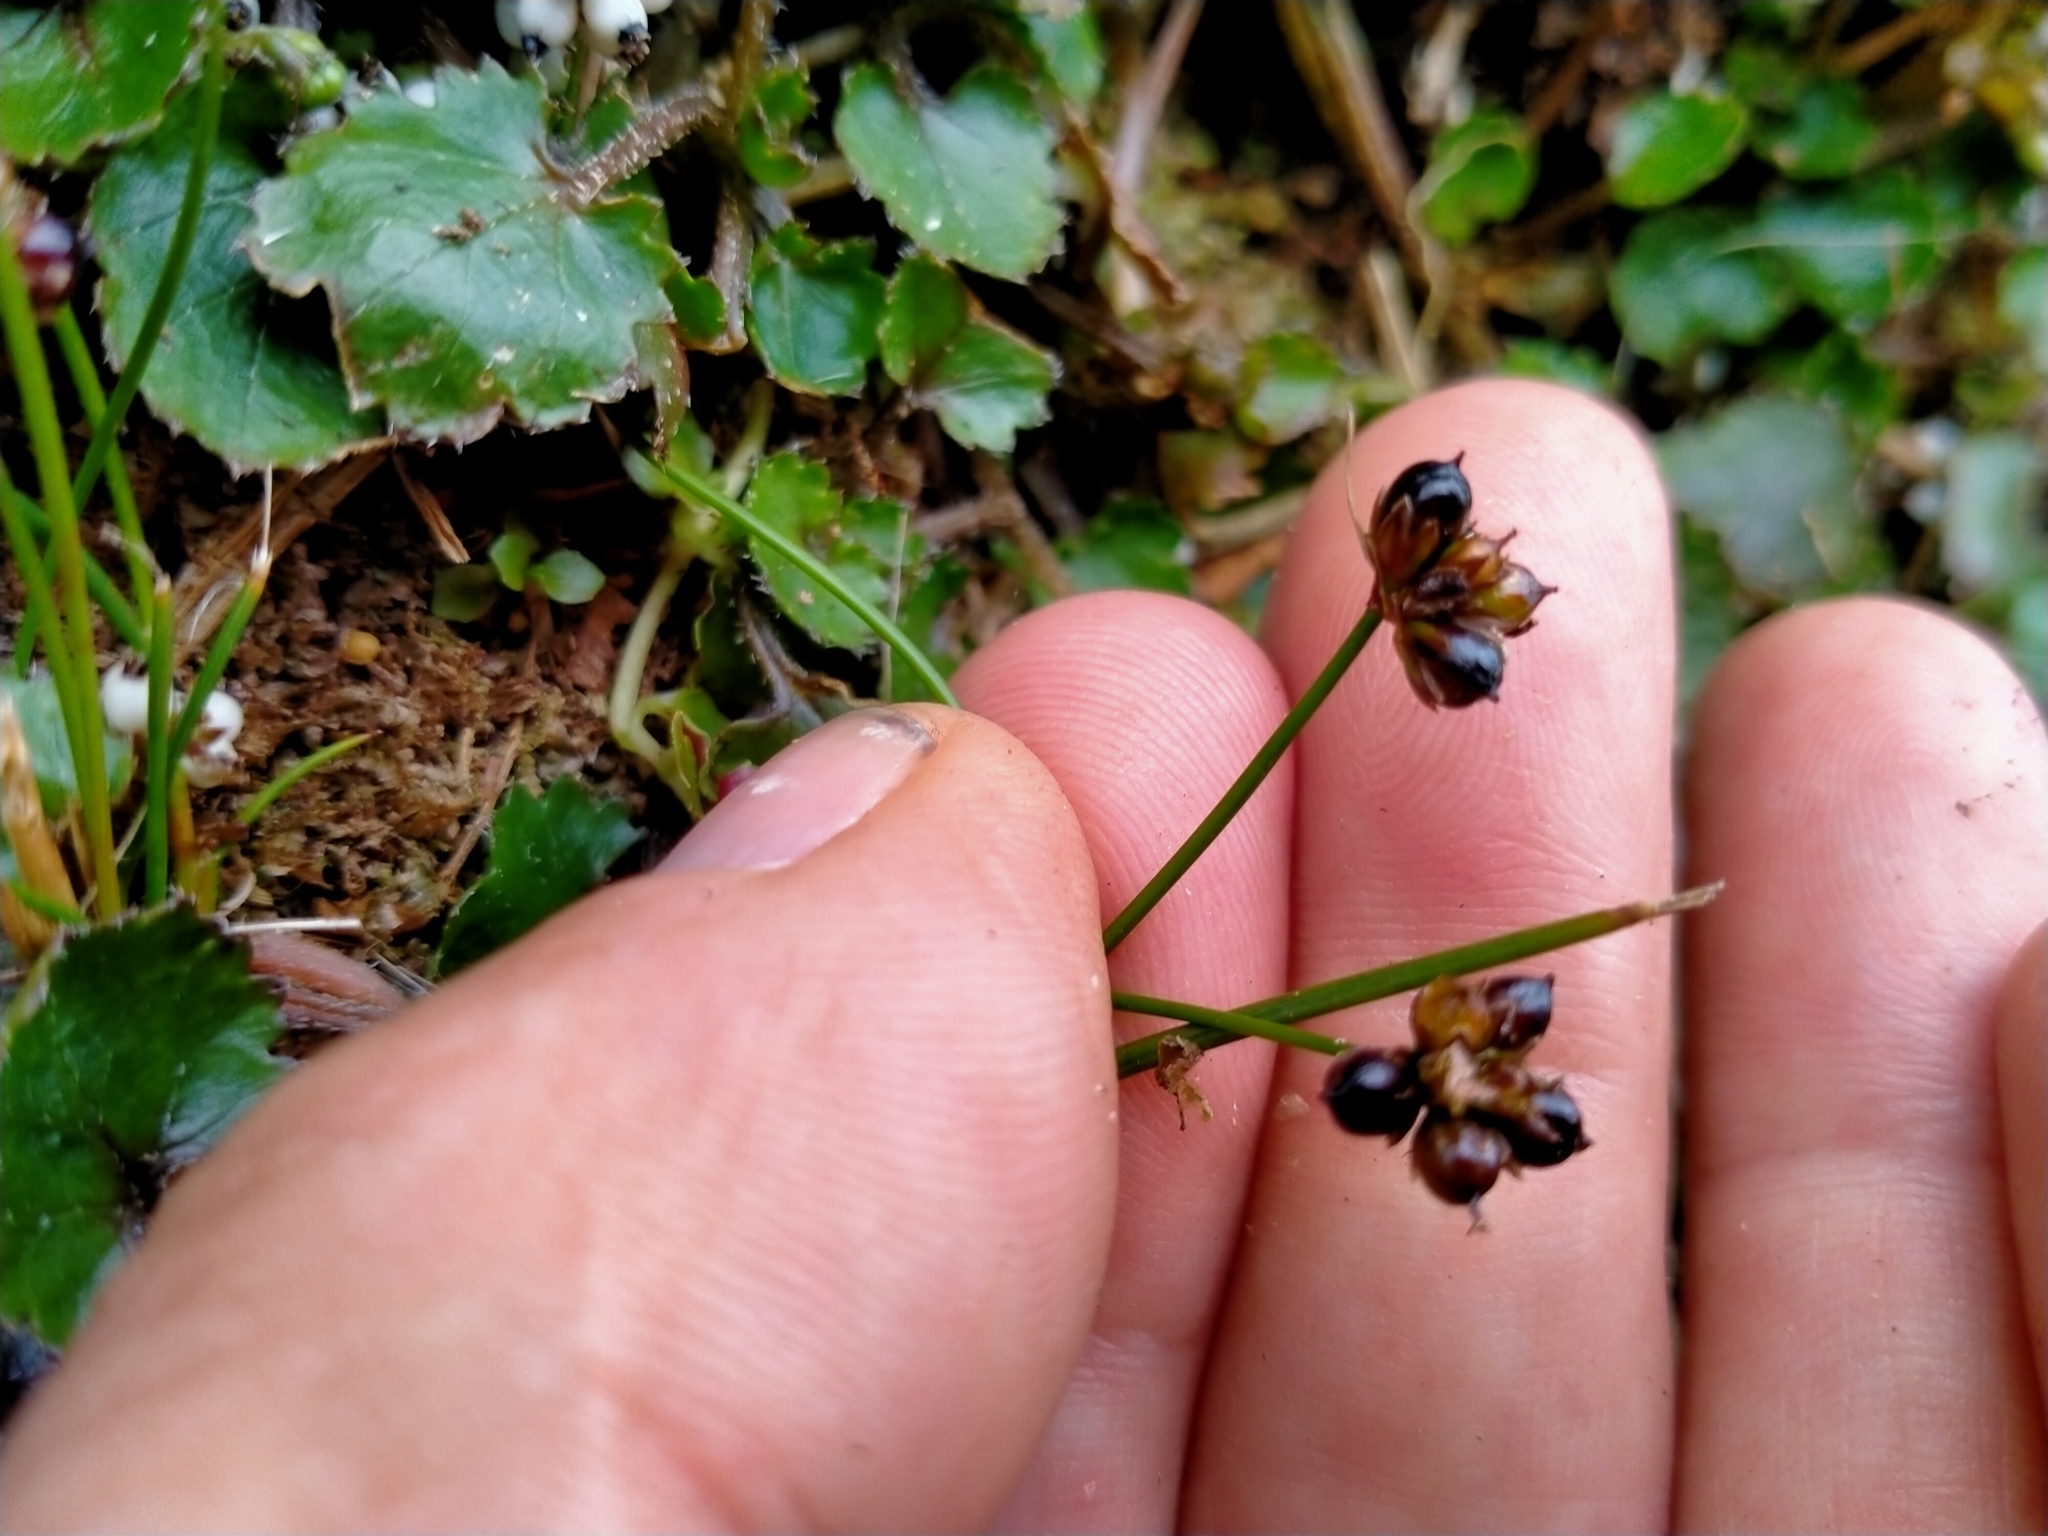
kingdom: Plantae
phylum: Tracheophyta
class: Liliopsida
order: Poales
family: Juncaceae
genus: Juncus
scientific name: Juncus novae-zelandiae
